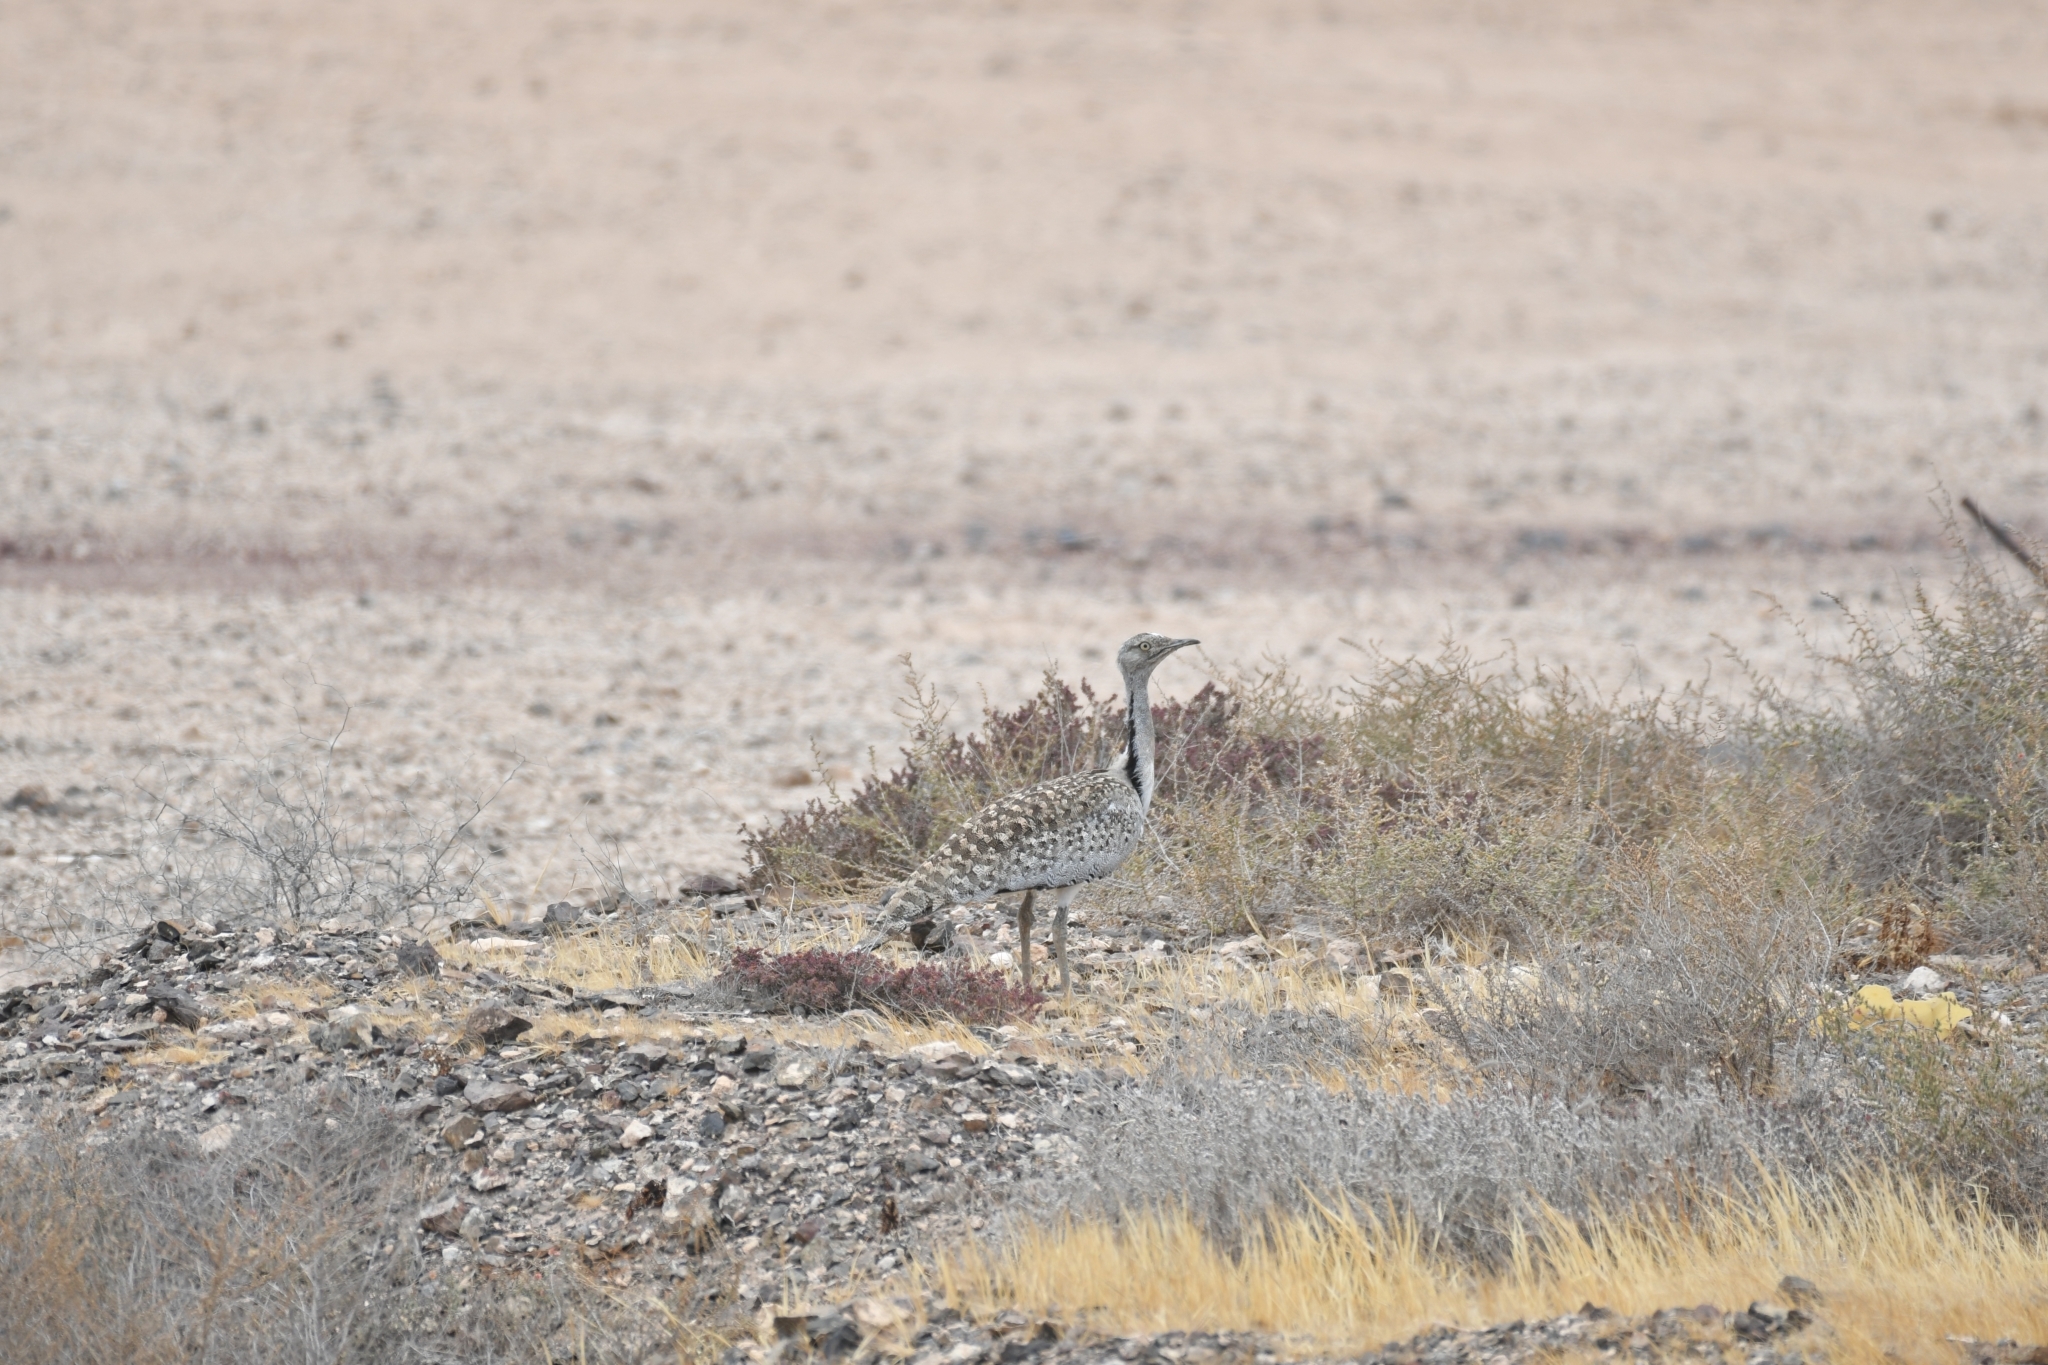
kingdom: Animalia
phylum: Chordata
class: Aves
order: Otidiformes
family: Otididae
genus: Chlamydotis
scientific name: Chlamydotis undulata
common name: Houbara bustard
